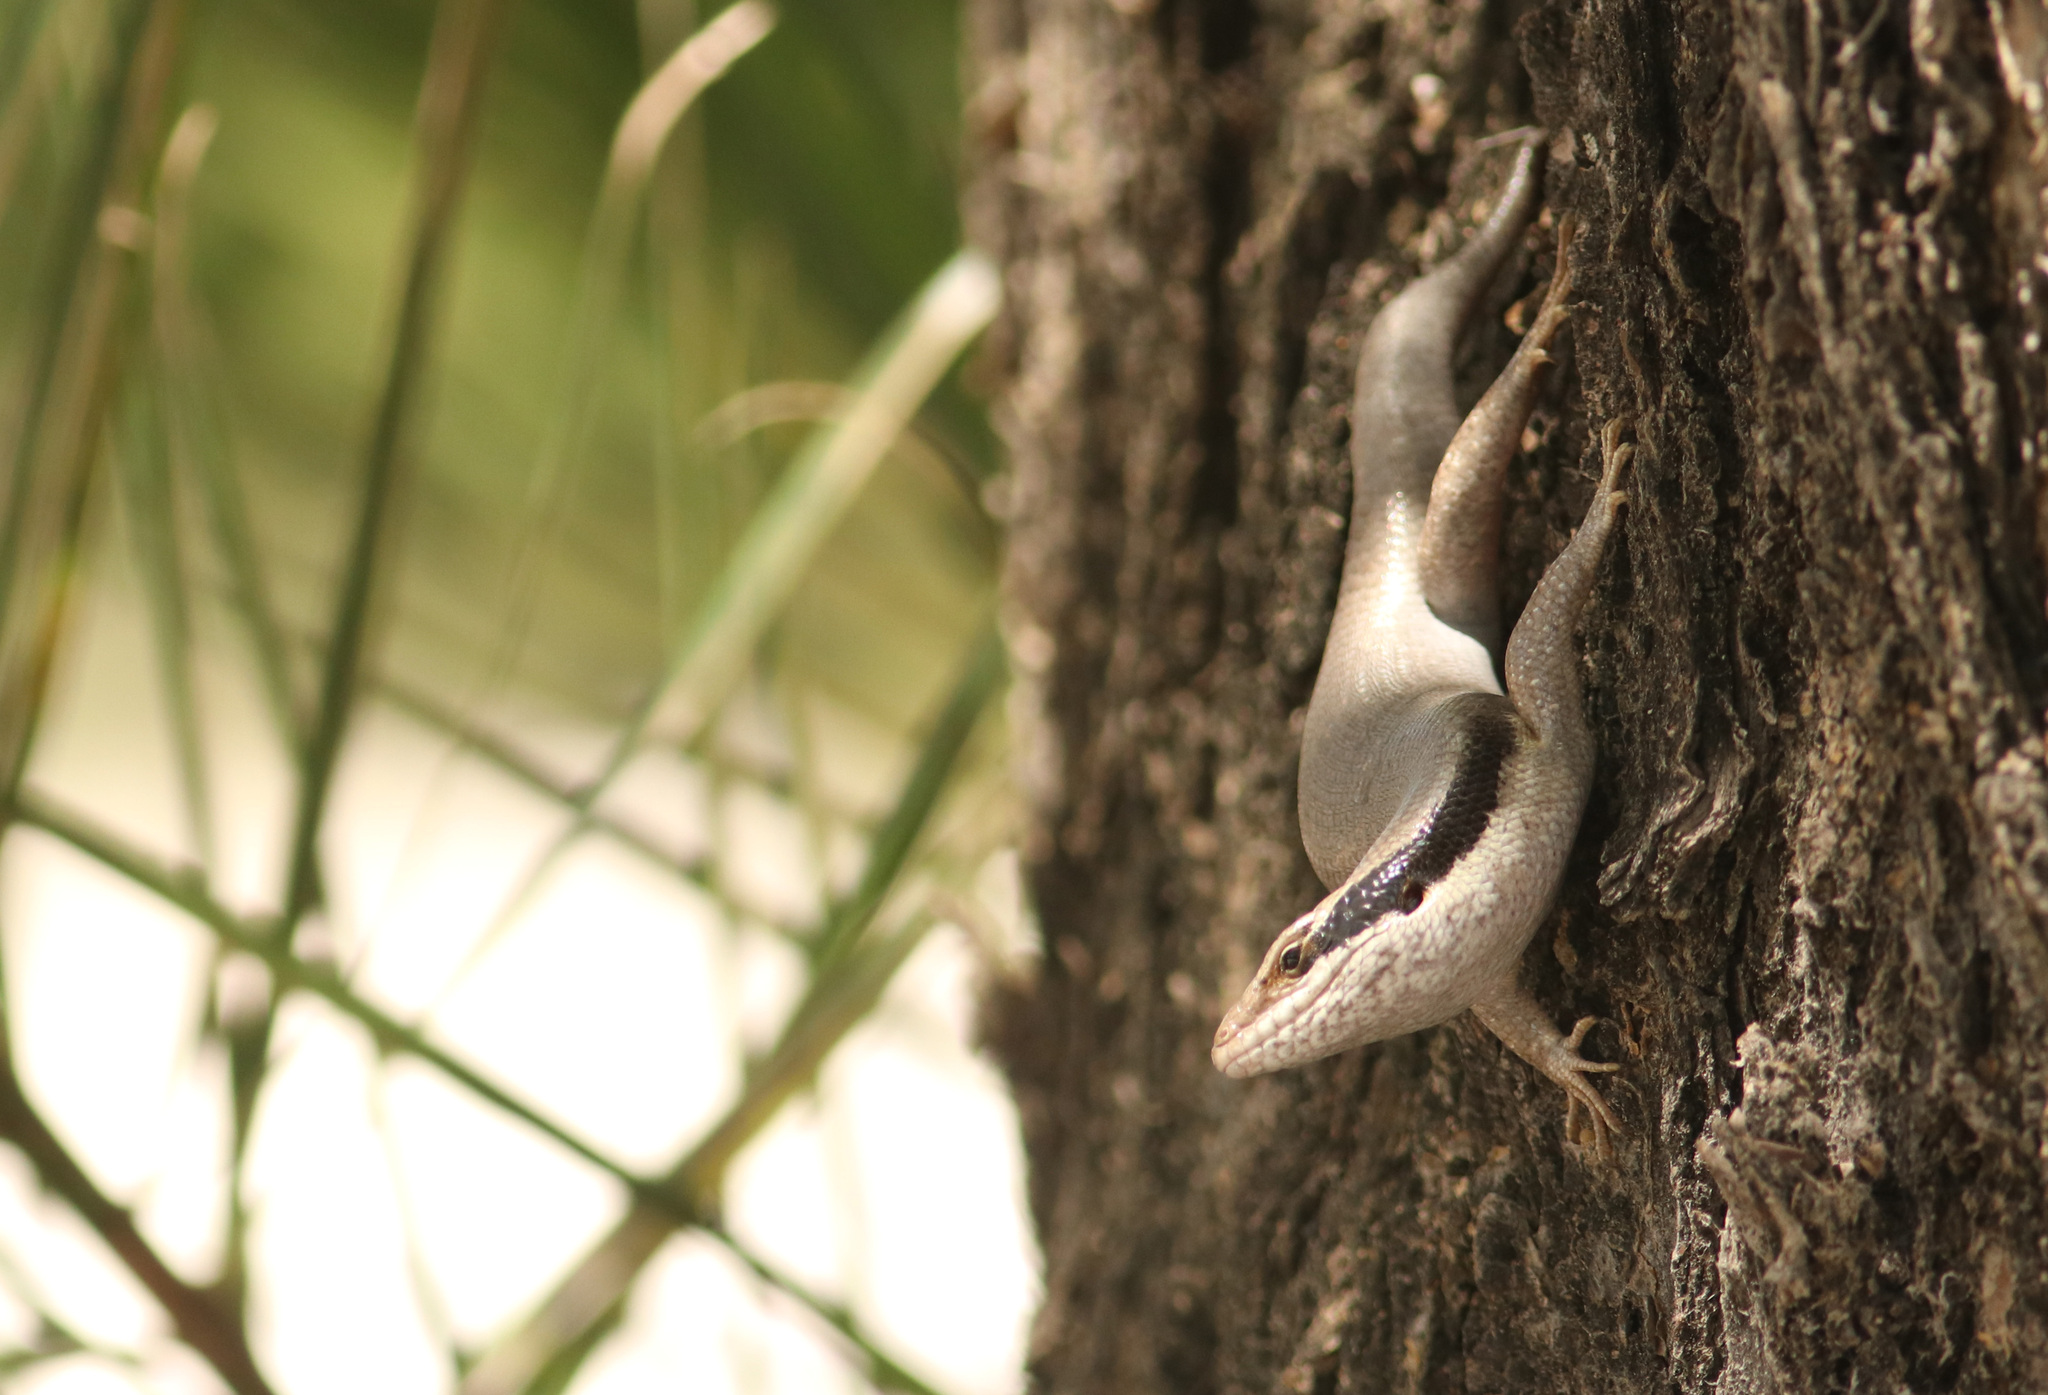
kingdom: Animalia
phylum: Chordata
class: Squamata
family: Scincidae
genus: Trachylepis
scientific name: Trachylepis binotata
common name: Bocage's mabuya
